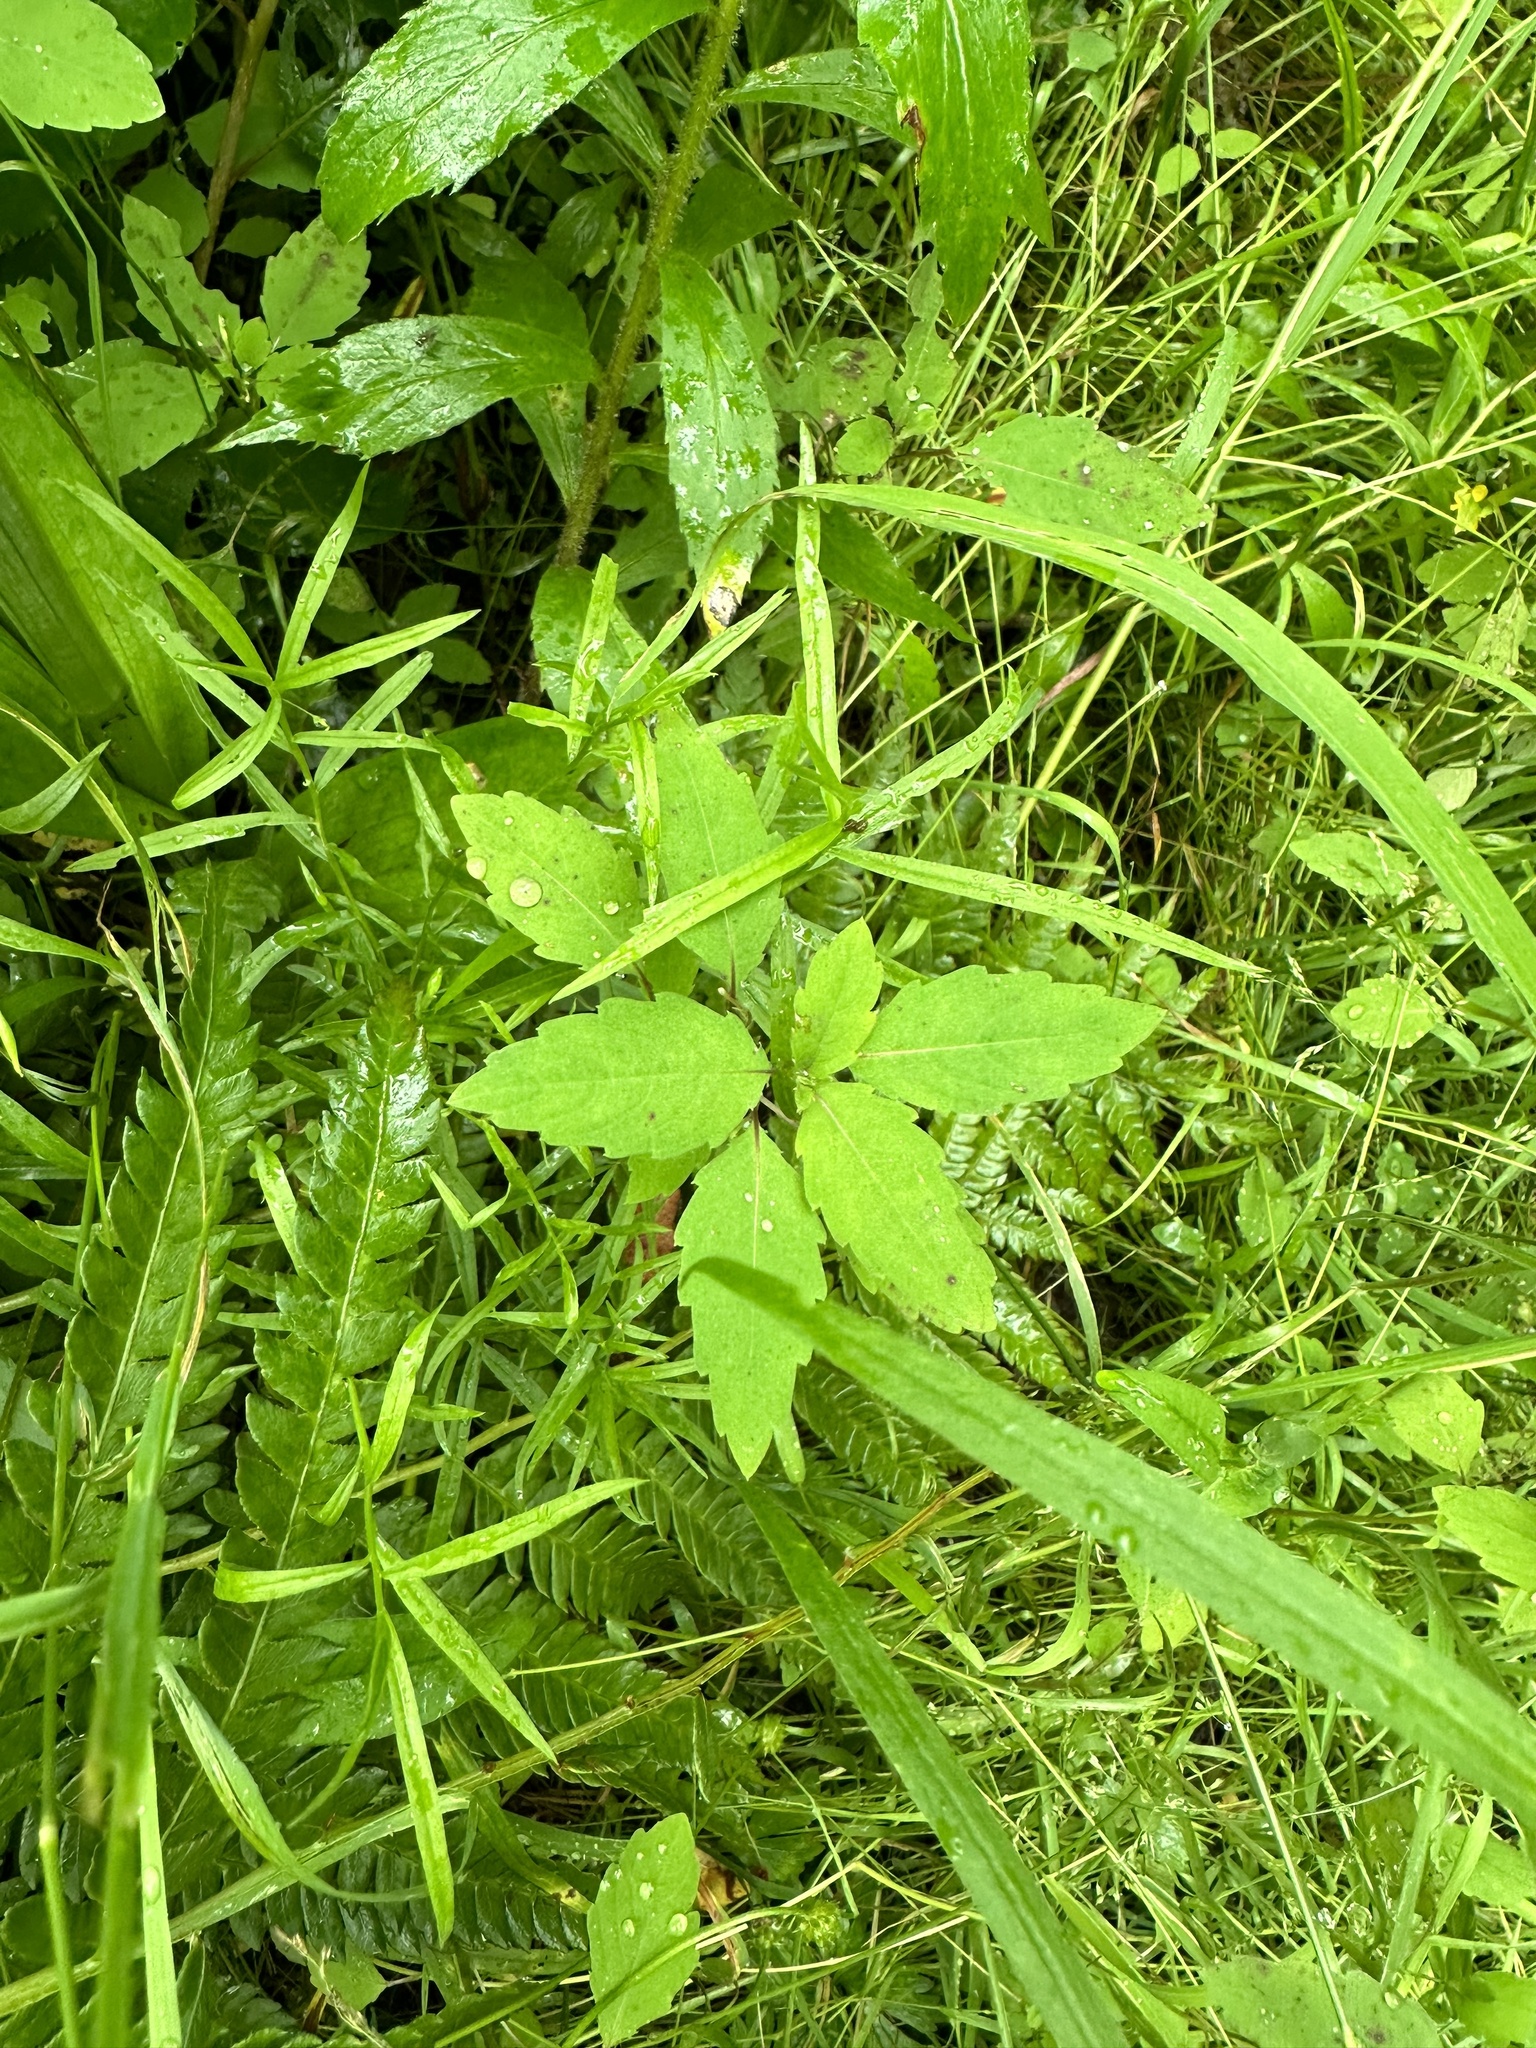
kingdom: Plantae
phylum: Tracheophyta
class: Magnoliopsida
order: Ericales
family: Balsaminaceae
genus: Impatiens
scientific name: Impatiens capensis
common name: Orange balsam
